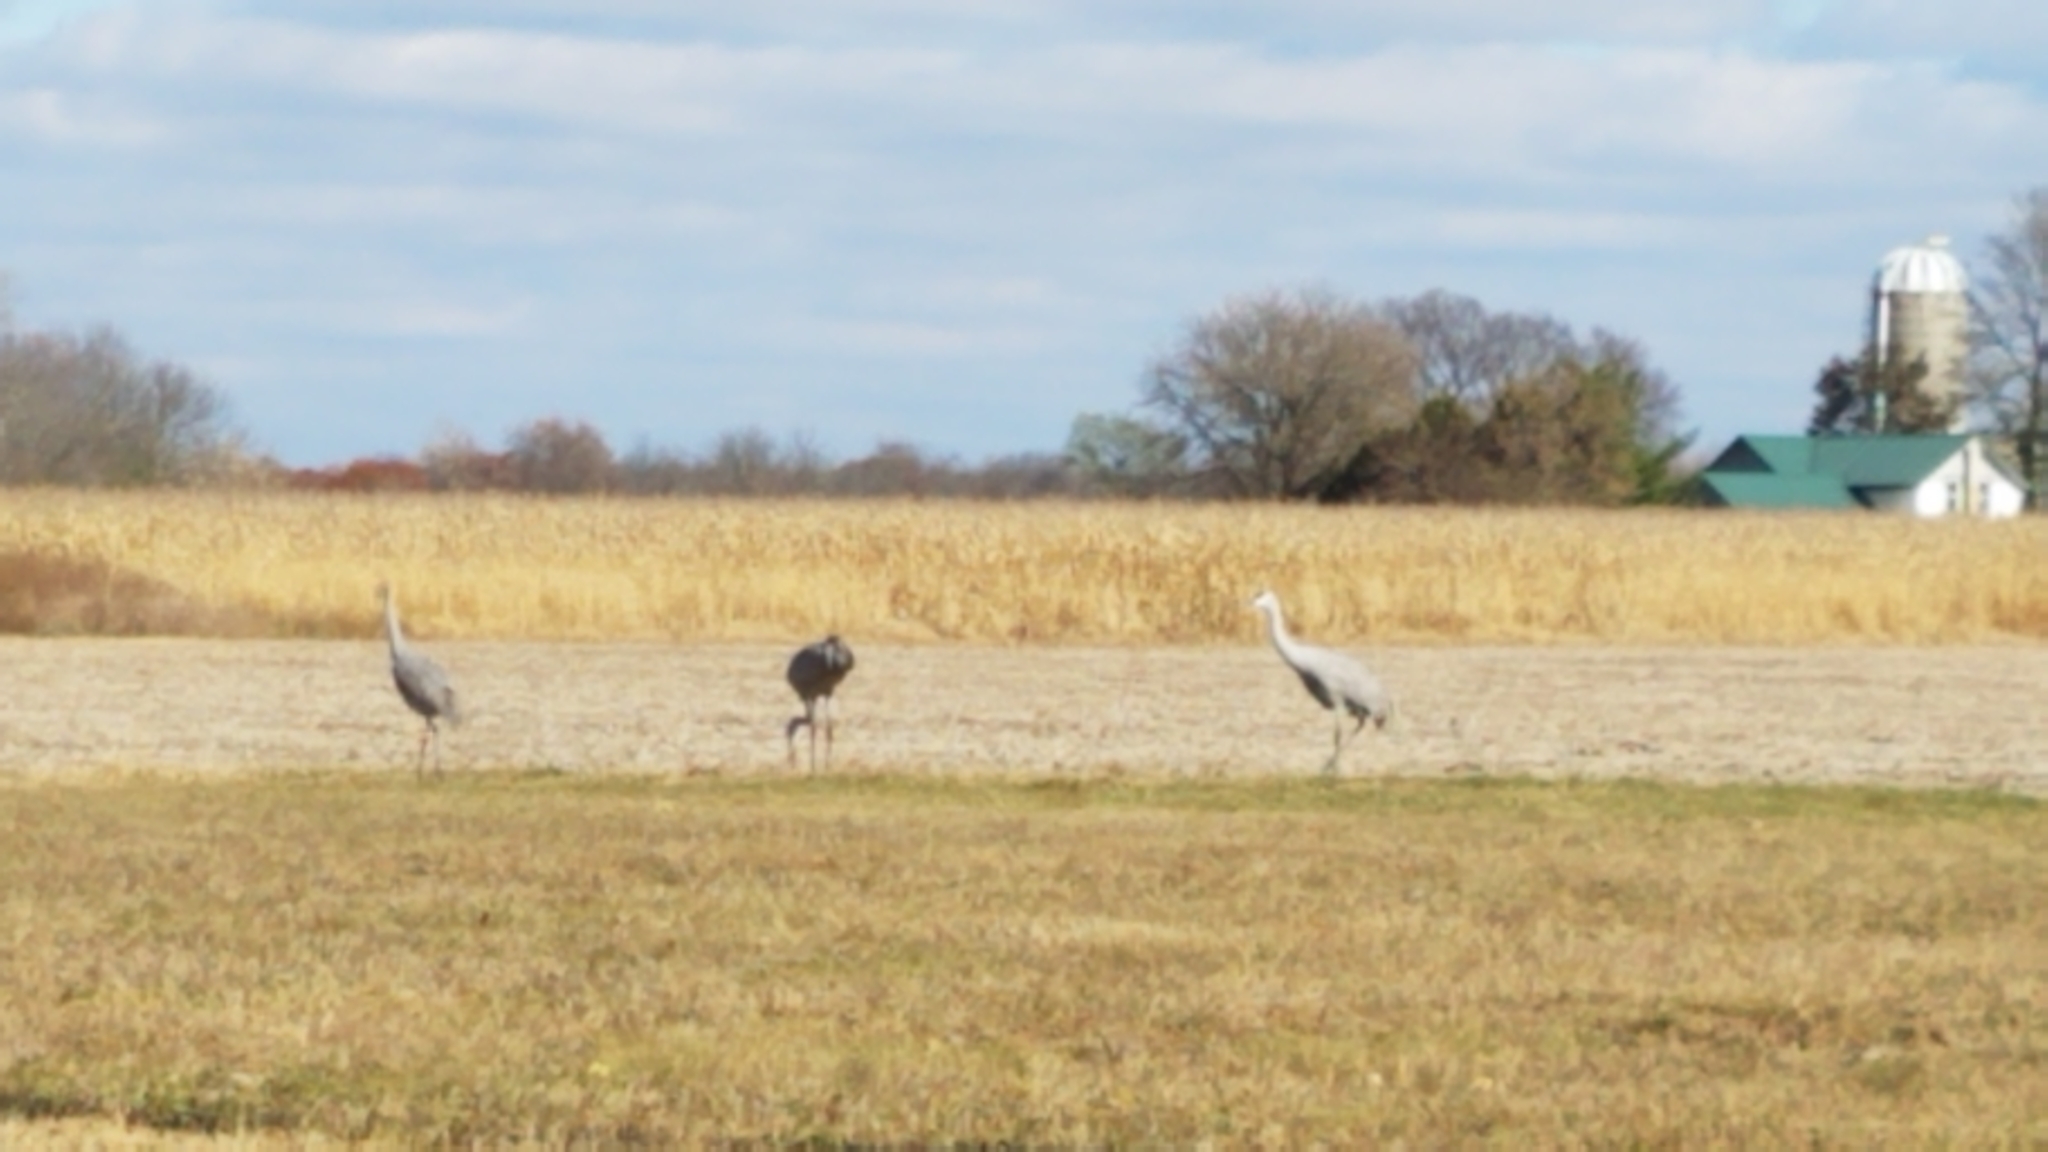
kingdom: Animalia
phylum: Chordata
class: Aves
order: Gruiformes
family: Gruidae
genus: Grus
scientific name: Grus canadensis
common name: Sandhill crane
